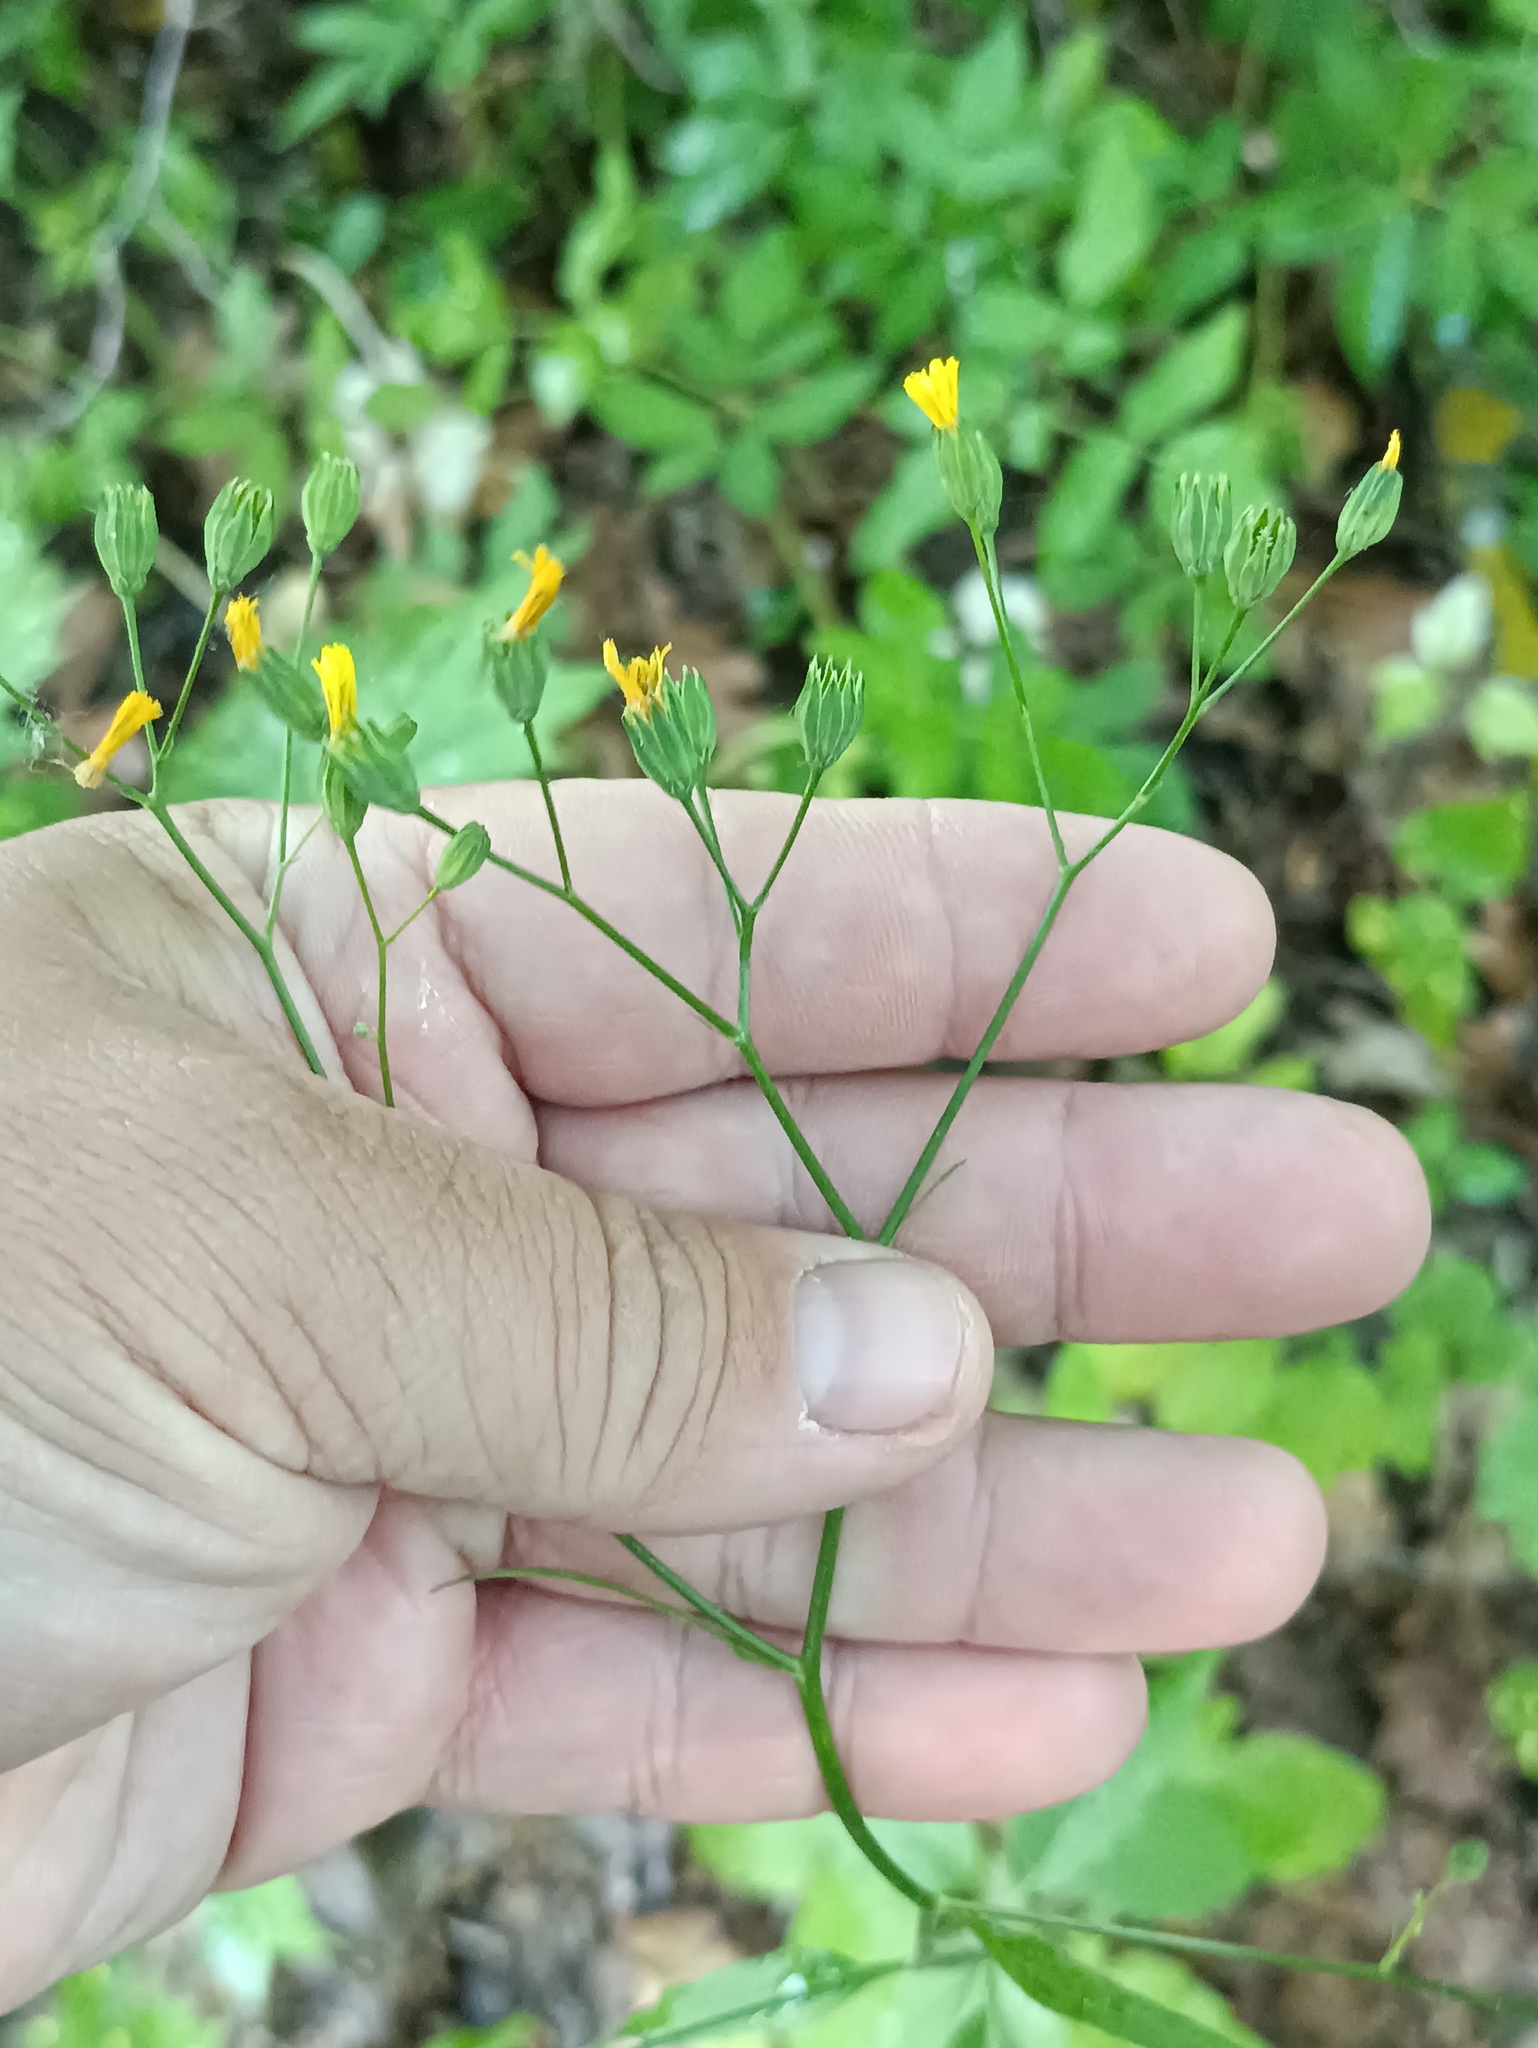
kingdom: Plantae
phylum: Tracheophyta
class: Magnoliopsida
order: Asterales
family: Asteraceae
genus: Lapsana
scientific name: Lapsana communis
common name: Nipplewort
